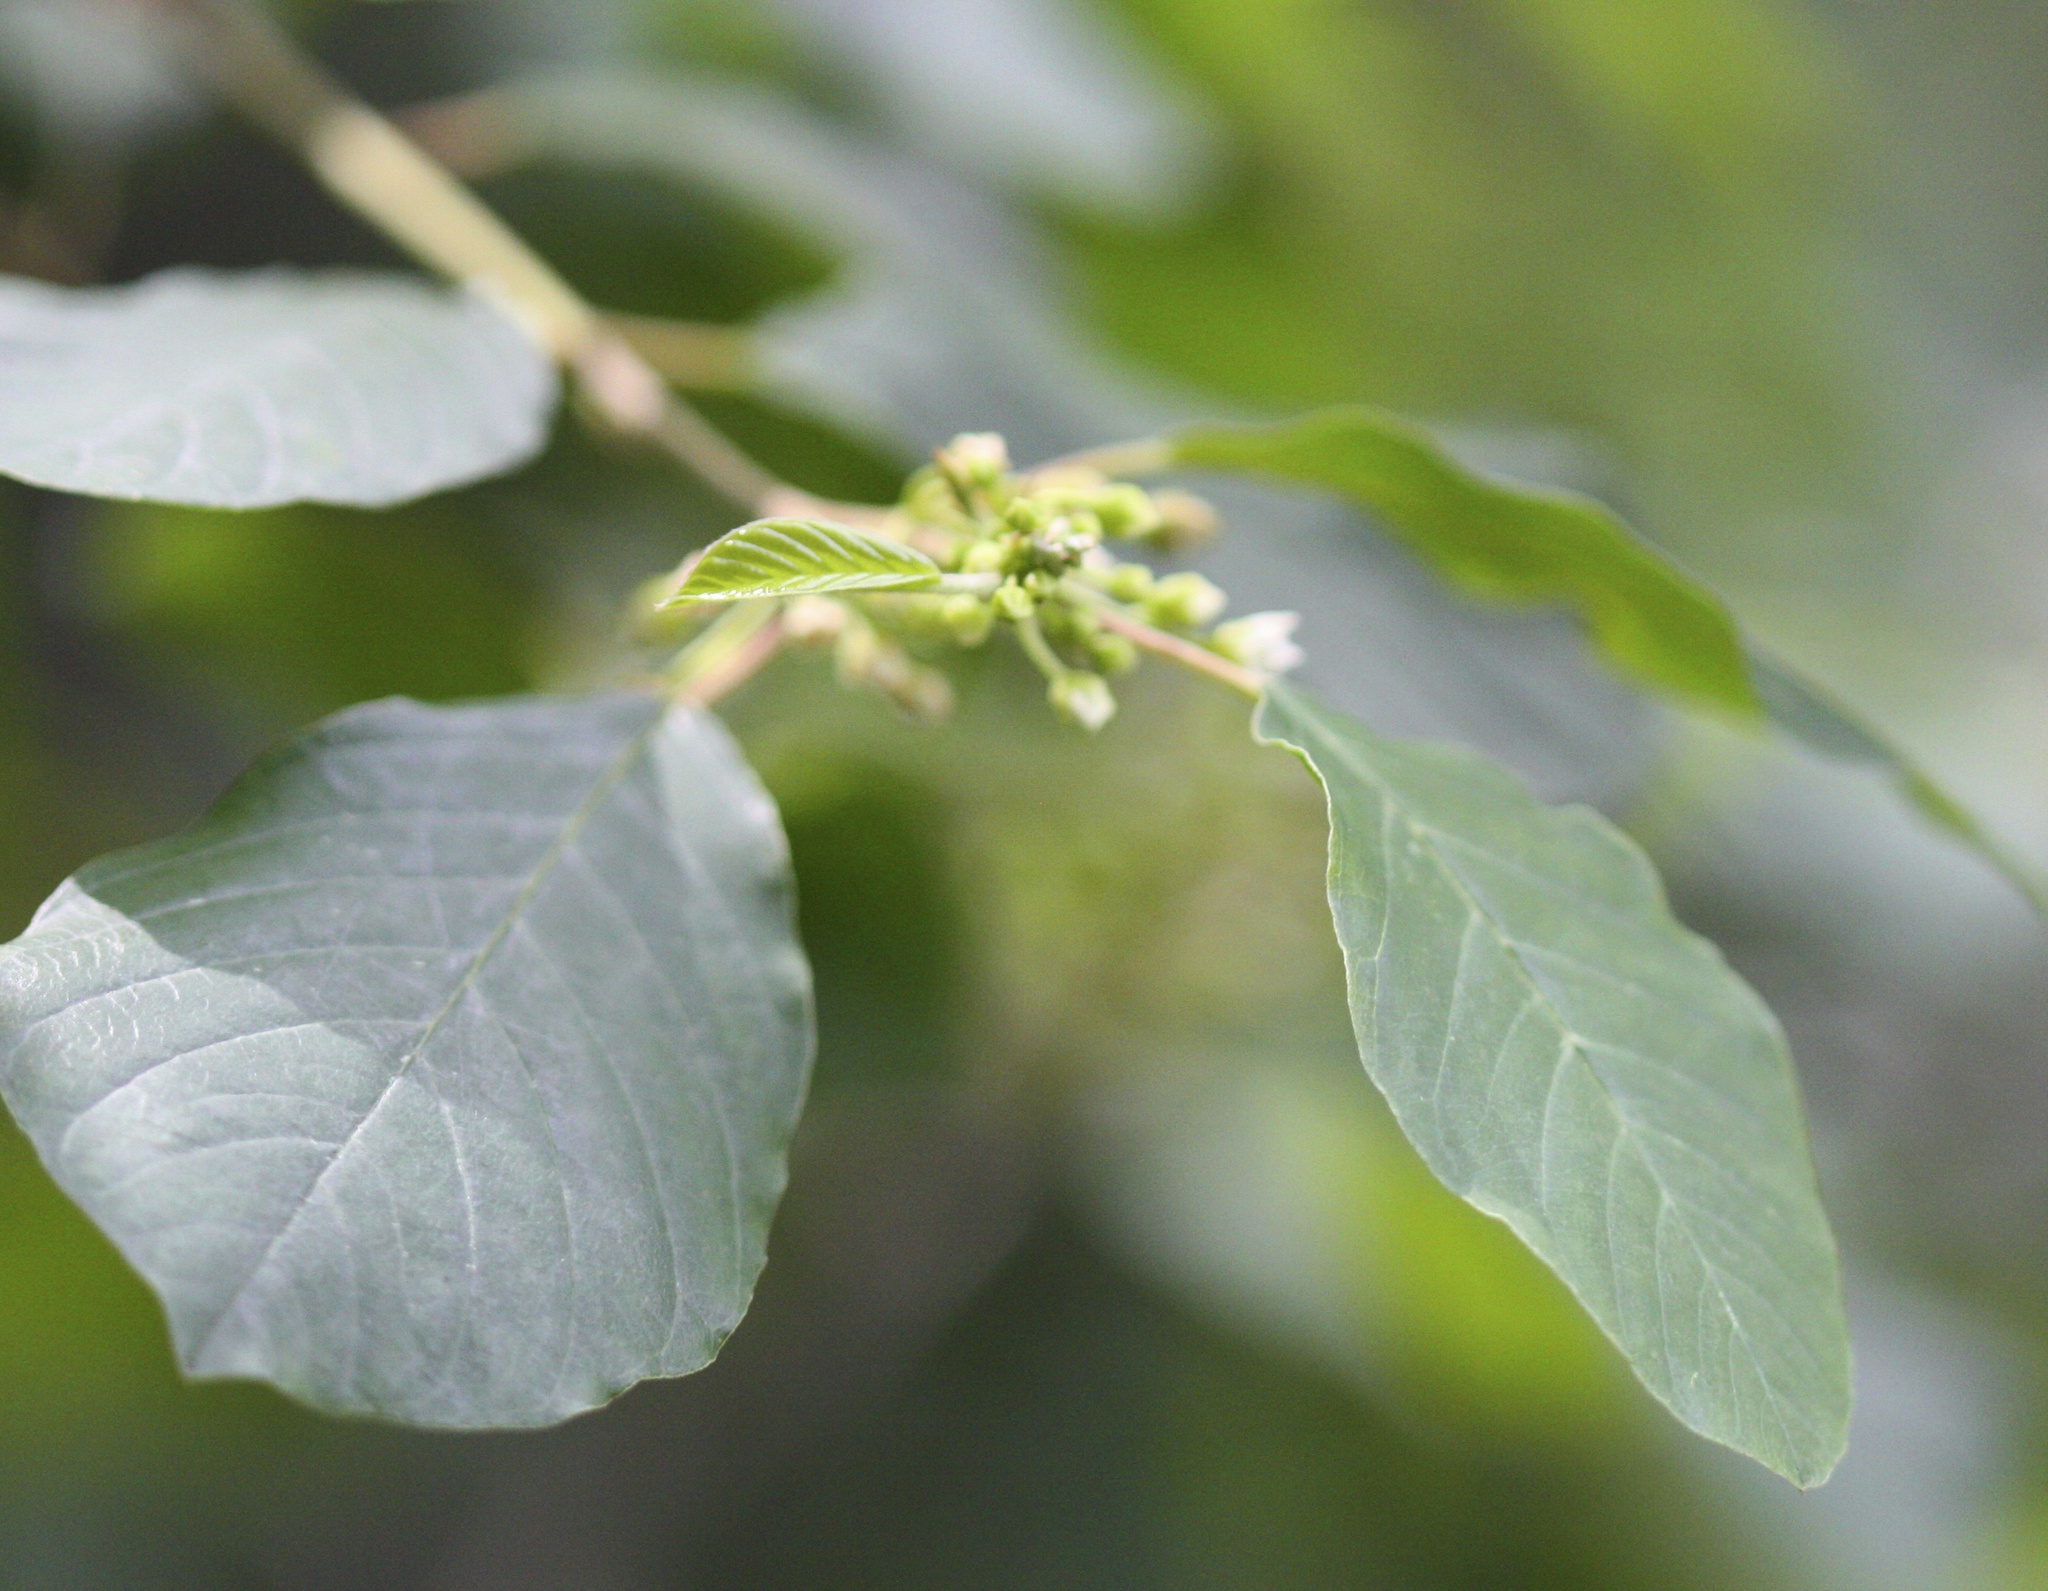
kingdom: Plantae
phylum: Tracheophyta
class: Magnoliopsida
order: Rosales
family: Rhamnaceae
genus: Frangula
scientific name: Frangula alnus
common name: Alder buckthorn
